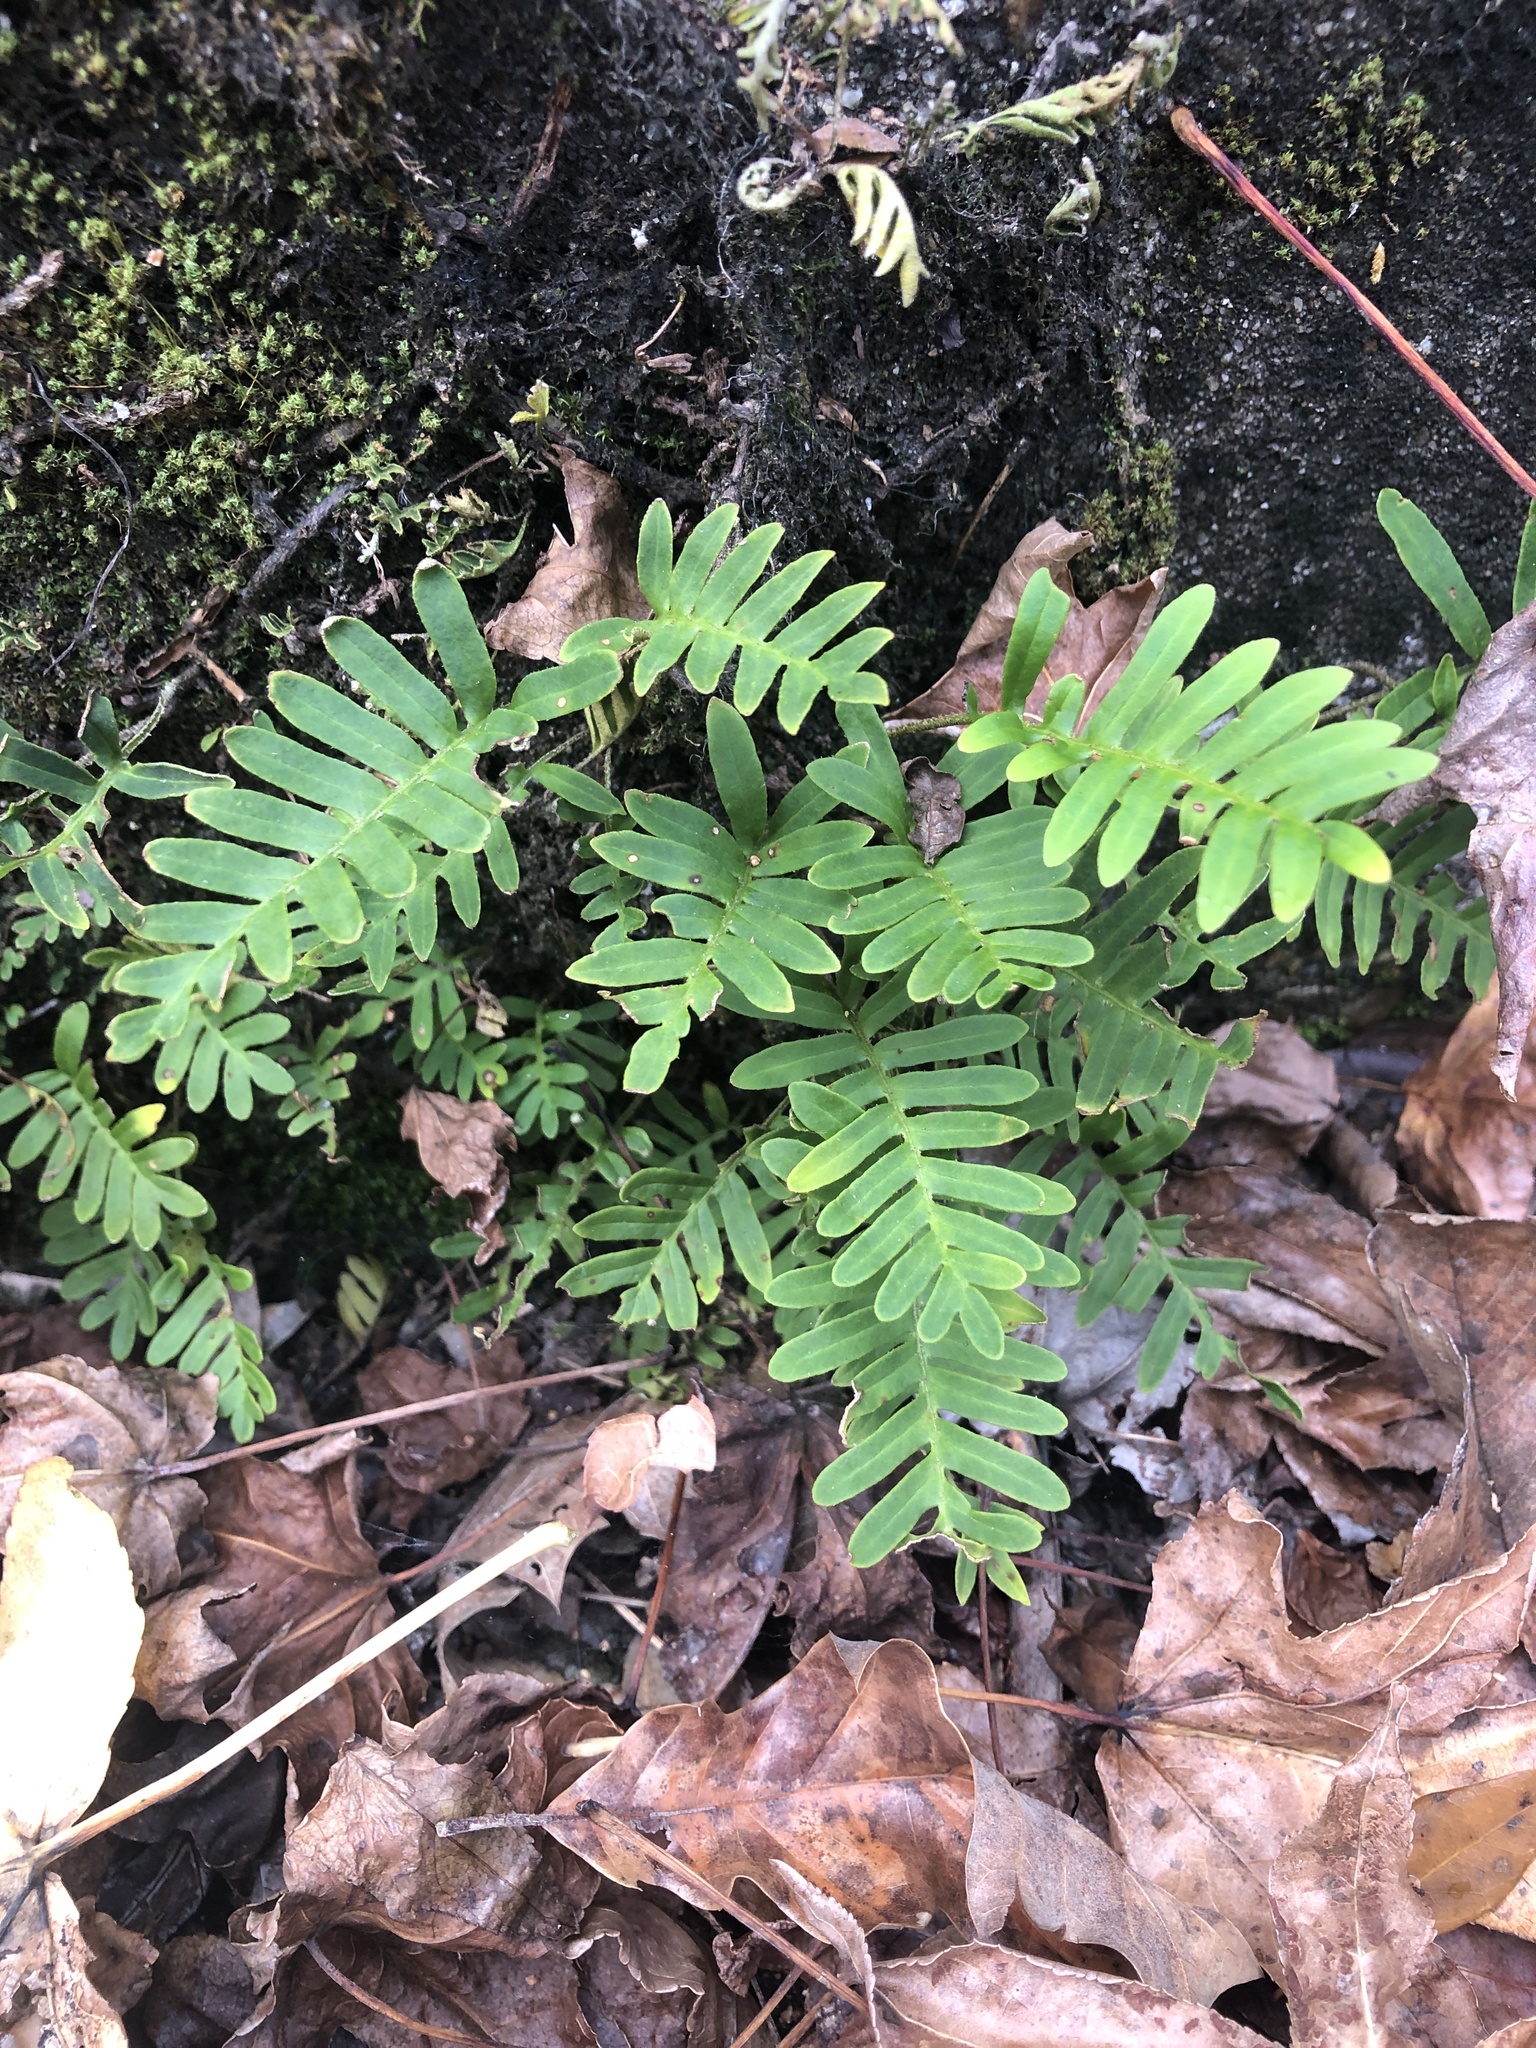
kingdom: Plantae
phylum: Tracheophyta
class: Polypodiopsida
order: Polypodiales
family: Polypodiaceae
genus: Pleopeltis
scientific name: Pleopeltis michauxiana
